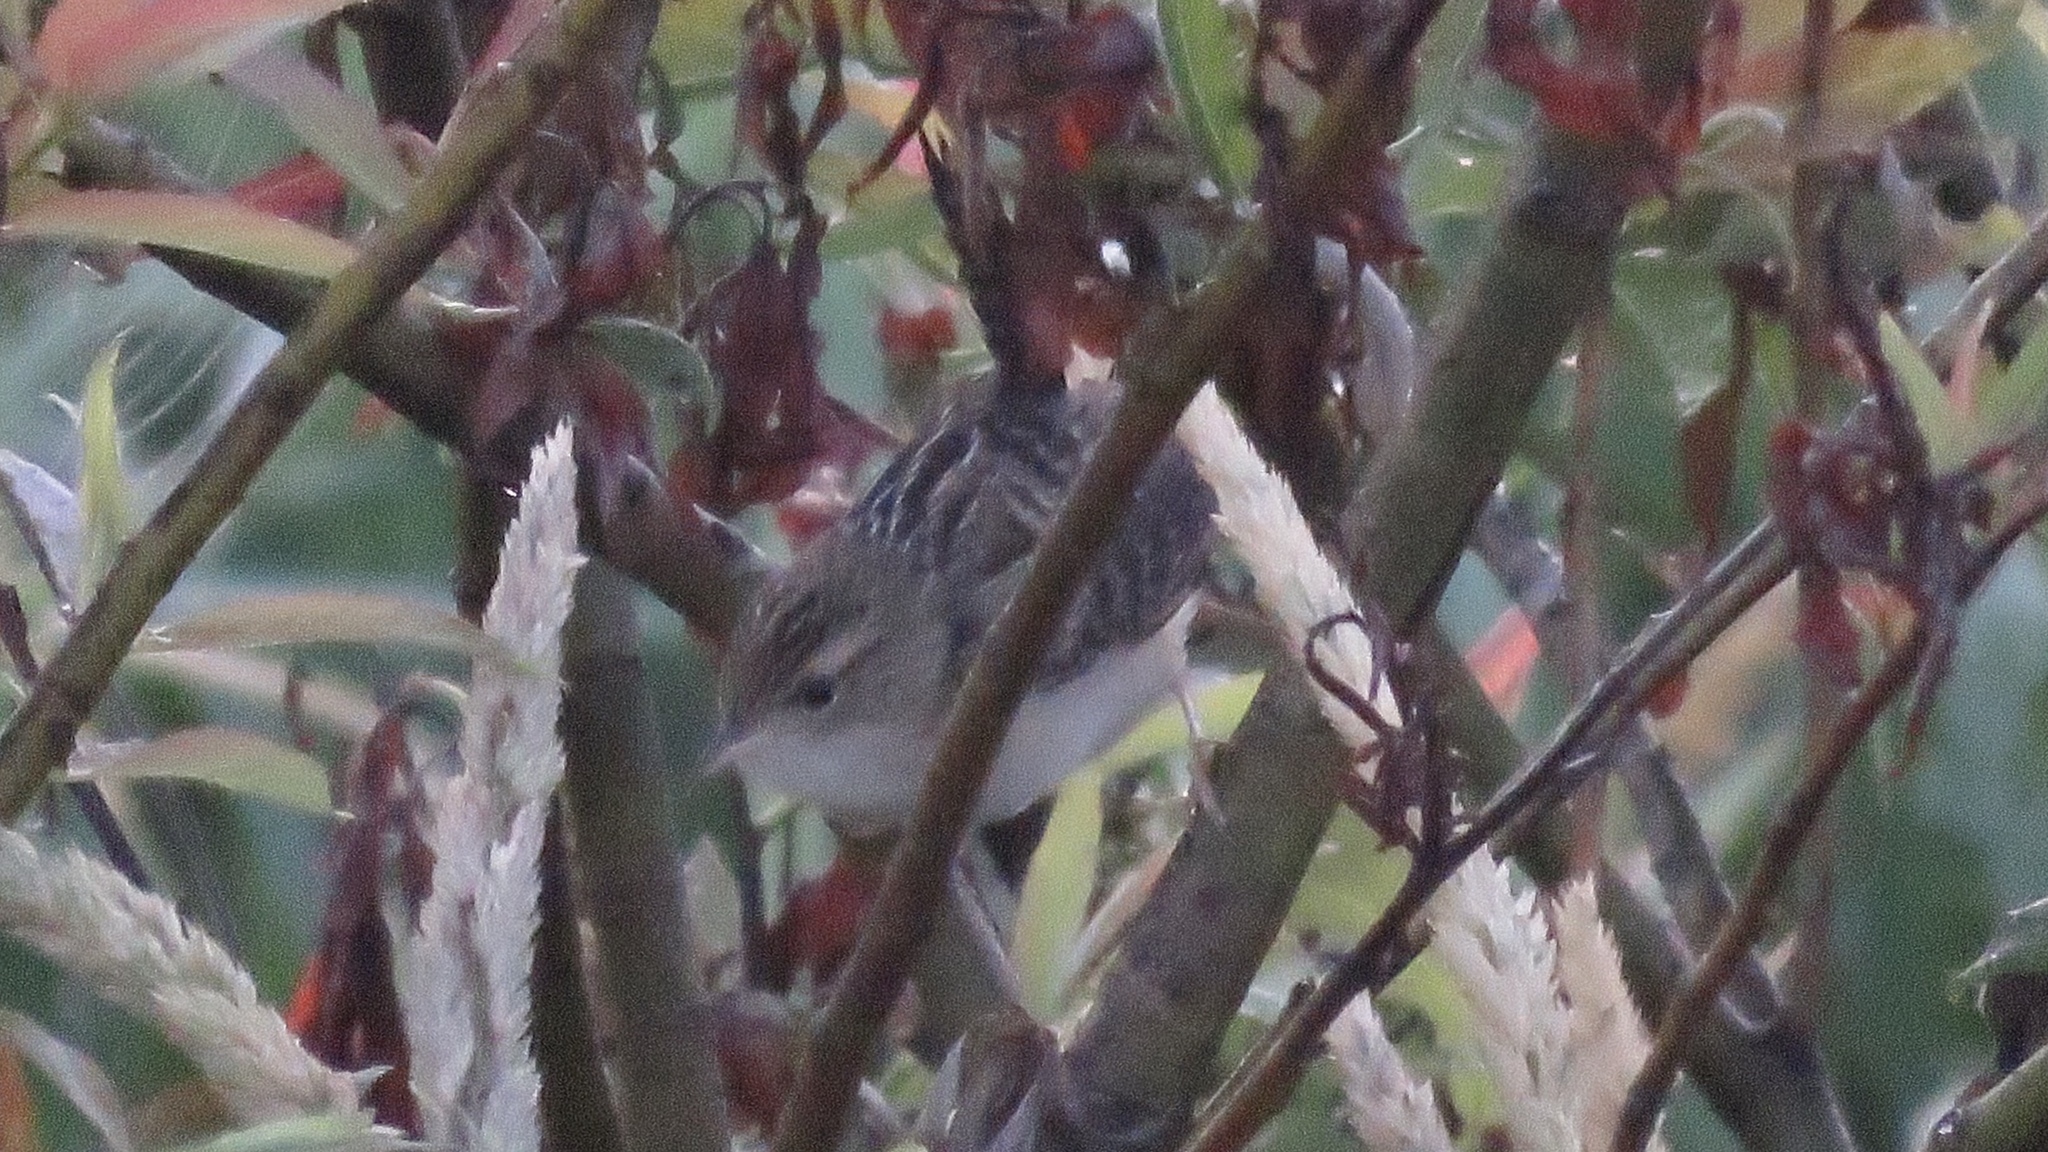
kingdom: Animalia
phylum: Chordata
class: Aves
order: Passeriformes
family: Troglodytidae
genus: Cistothorus
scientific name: Cistothorus platensis
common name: Sedge wren
